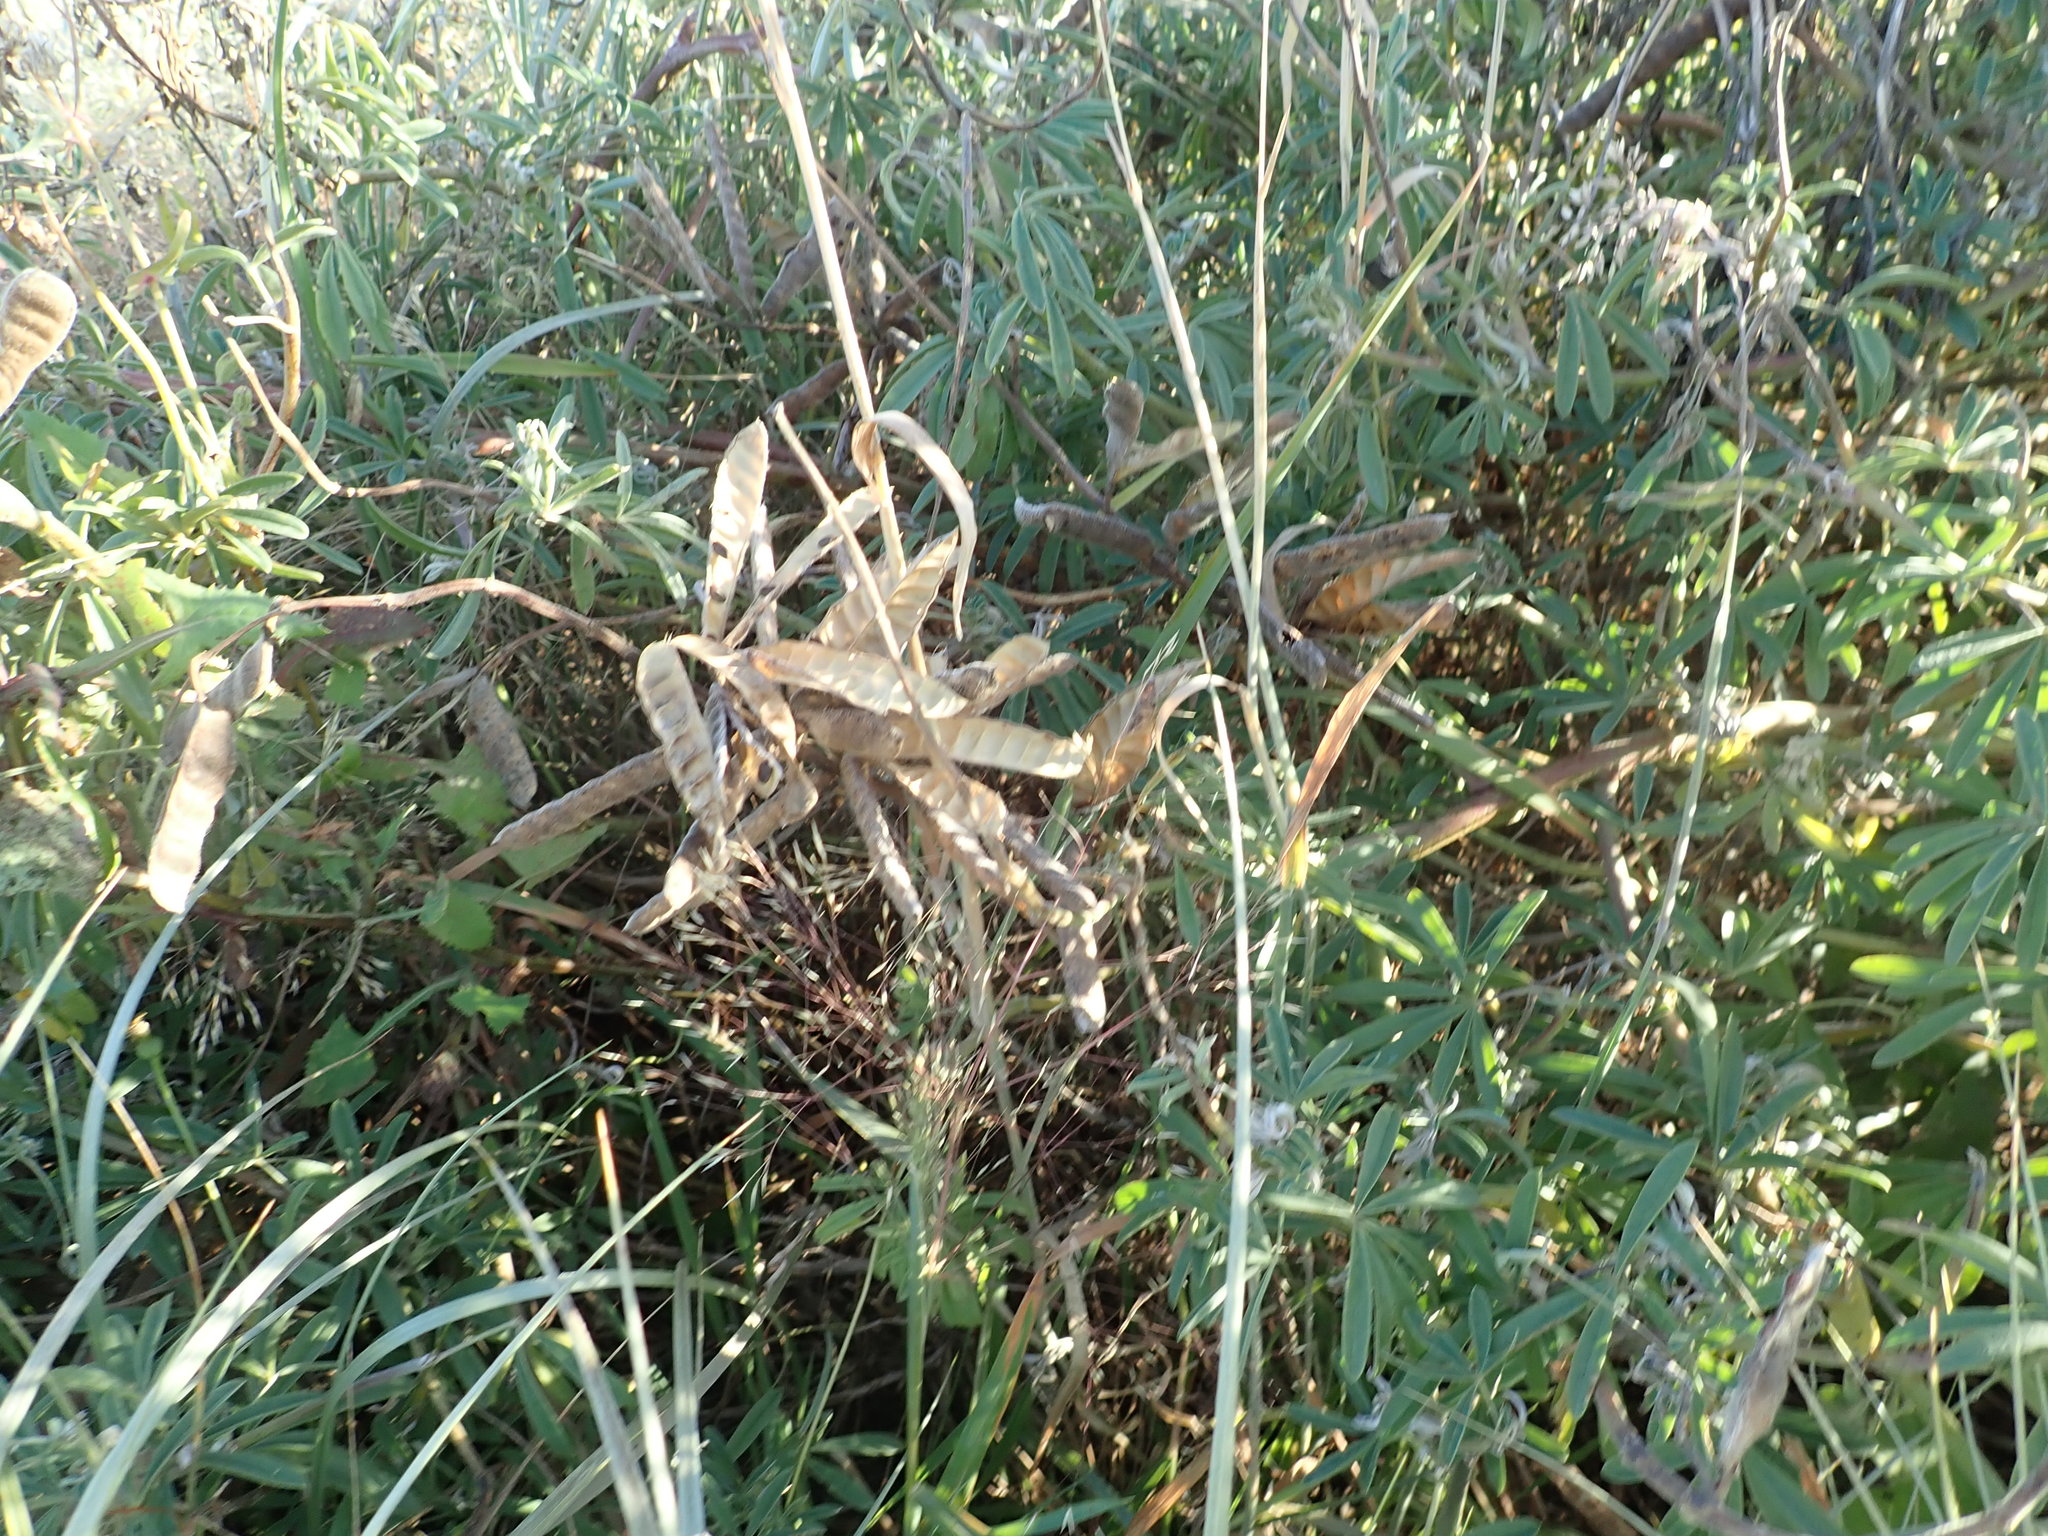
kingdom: Plantae
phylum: Tracheophyta
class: Magnoliopsida
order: Fabales
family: Fabaceae
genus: Lupinus
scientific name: Lupinus arboreus
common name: Yellow bush lupine
